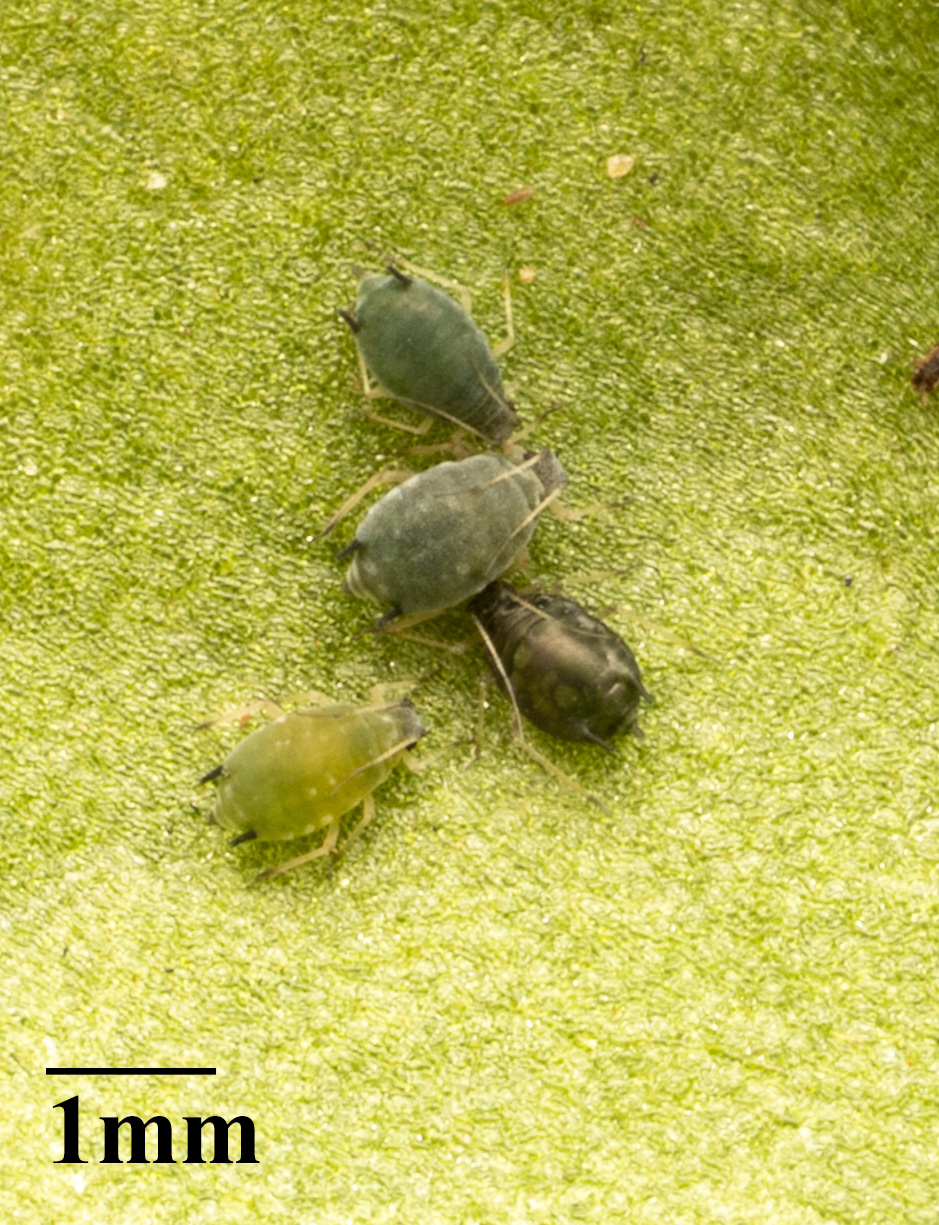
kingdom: Animalia
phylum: Arthropoda
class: Insecta
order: Hemiptera
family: Aphididae
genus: Aphis
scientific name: Aphis gossypii
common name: Melon aphid
